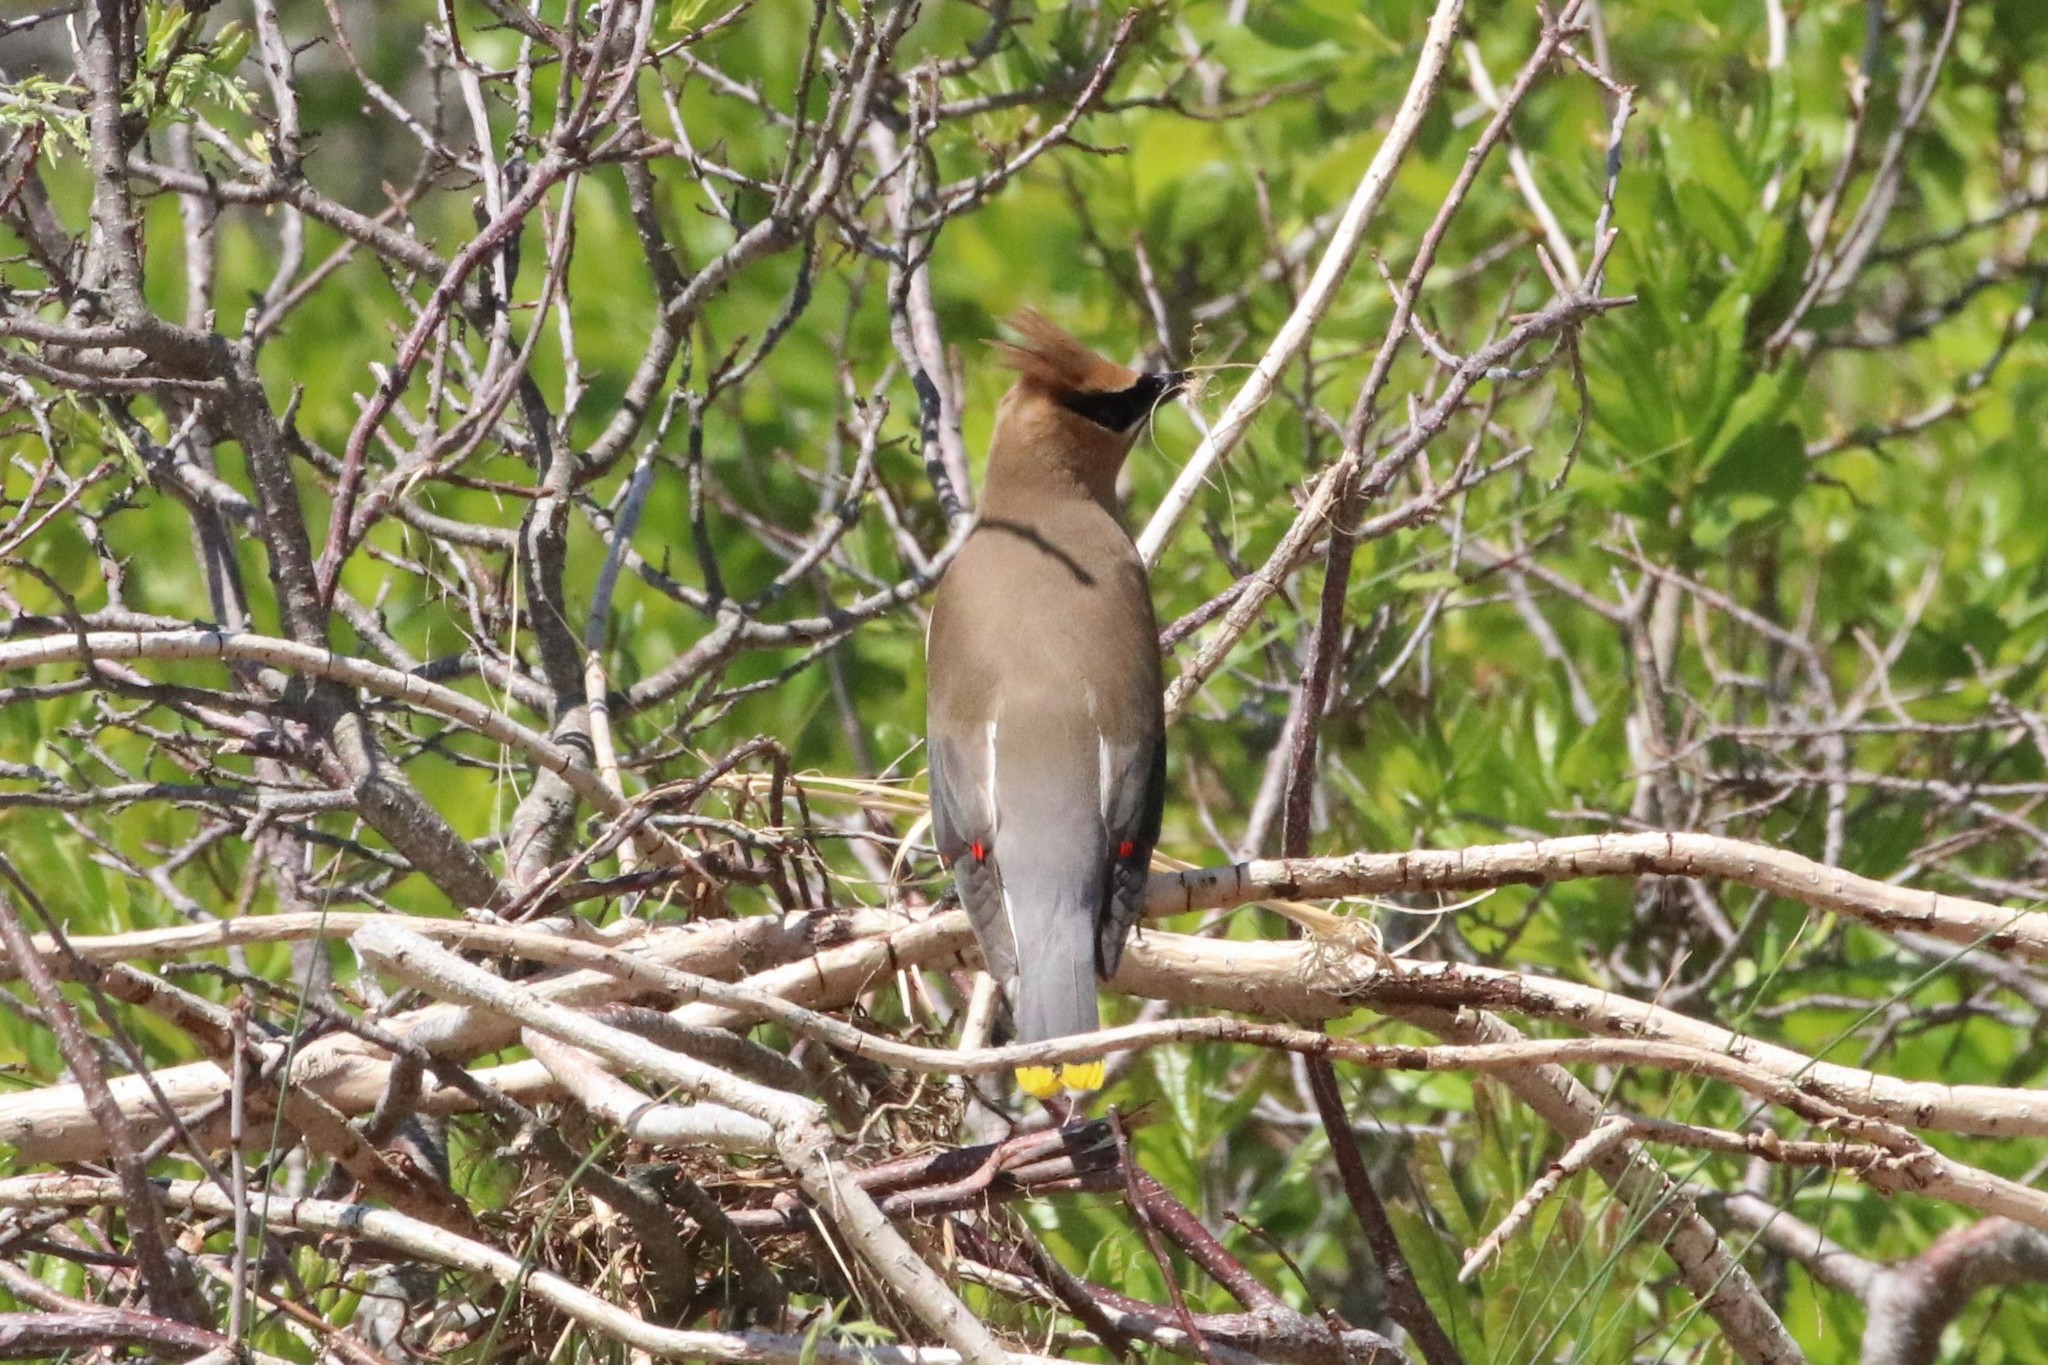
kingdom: Animalia
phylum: Chordata
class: Aves
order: Passeriformes
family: Bombycillidae
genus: Bombycilla
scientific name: Bombycilla cedrorum
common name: Cedar waxwing
